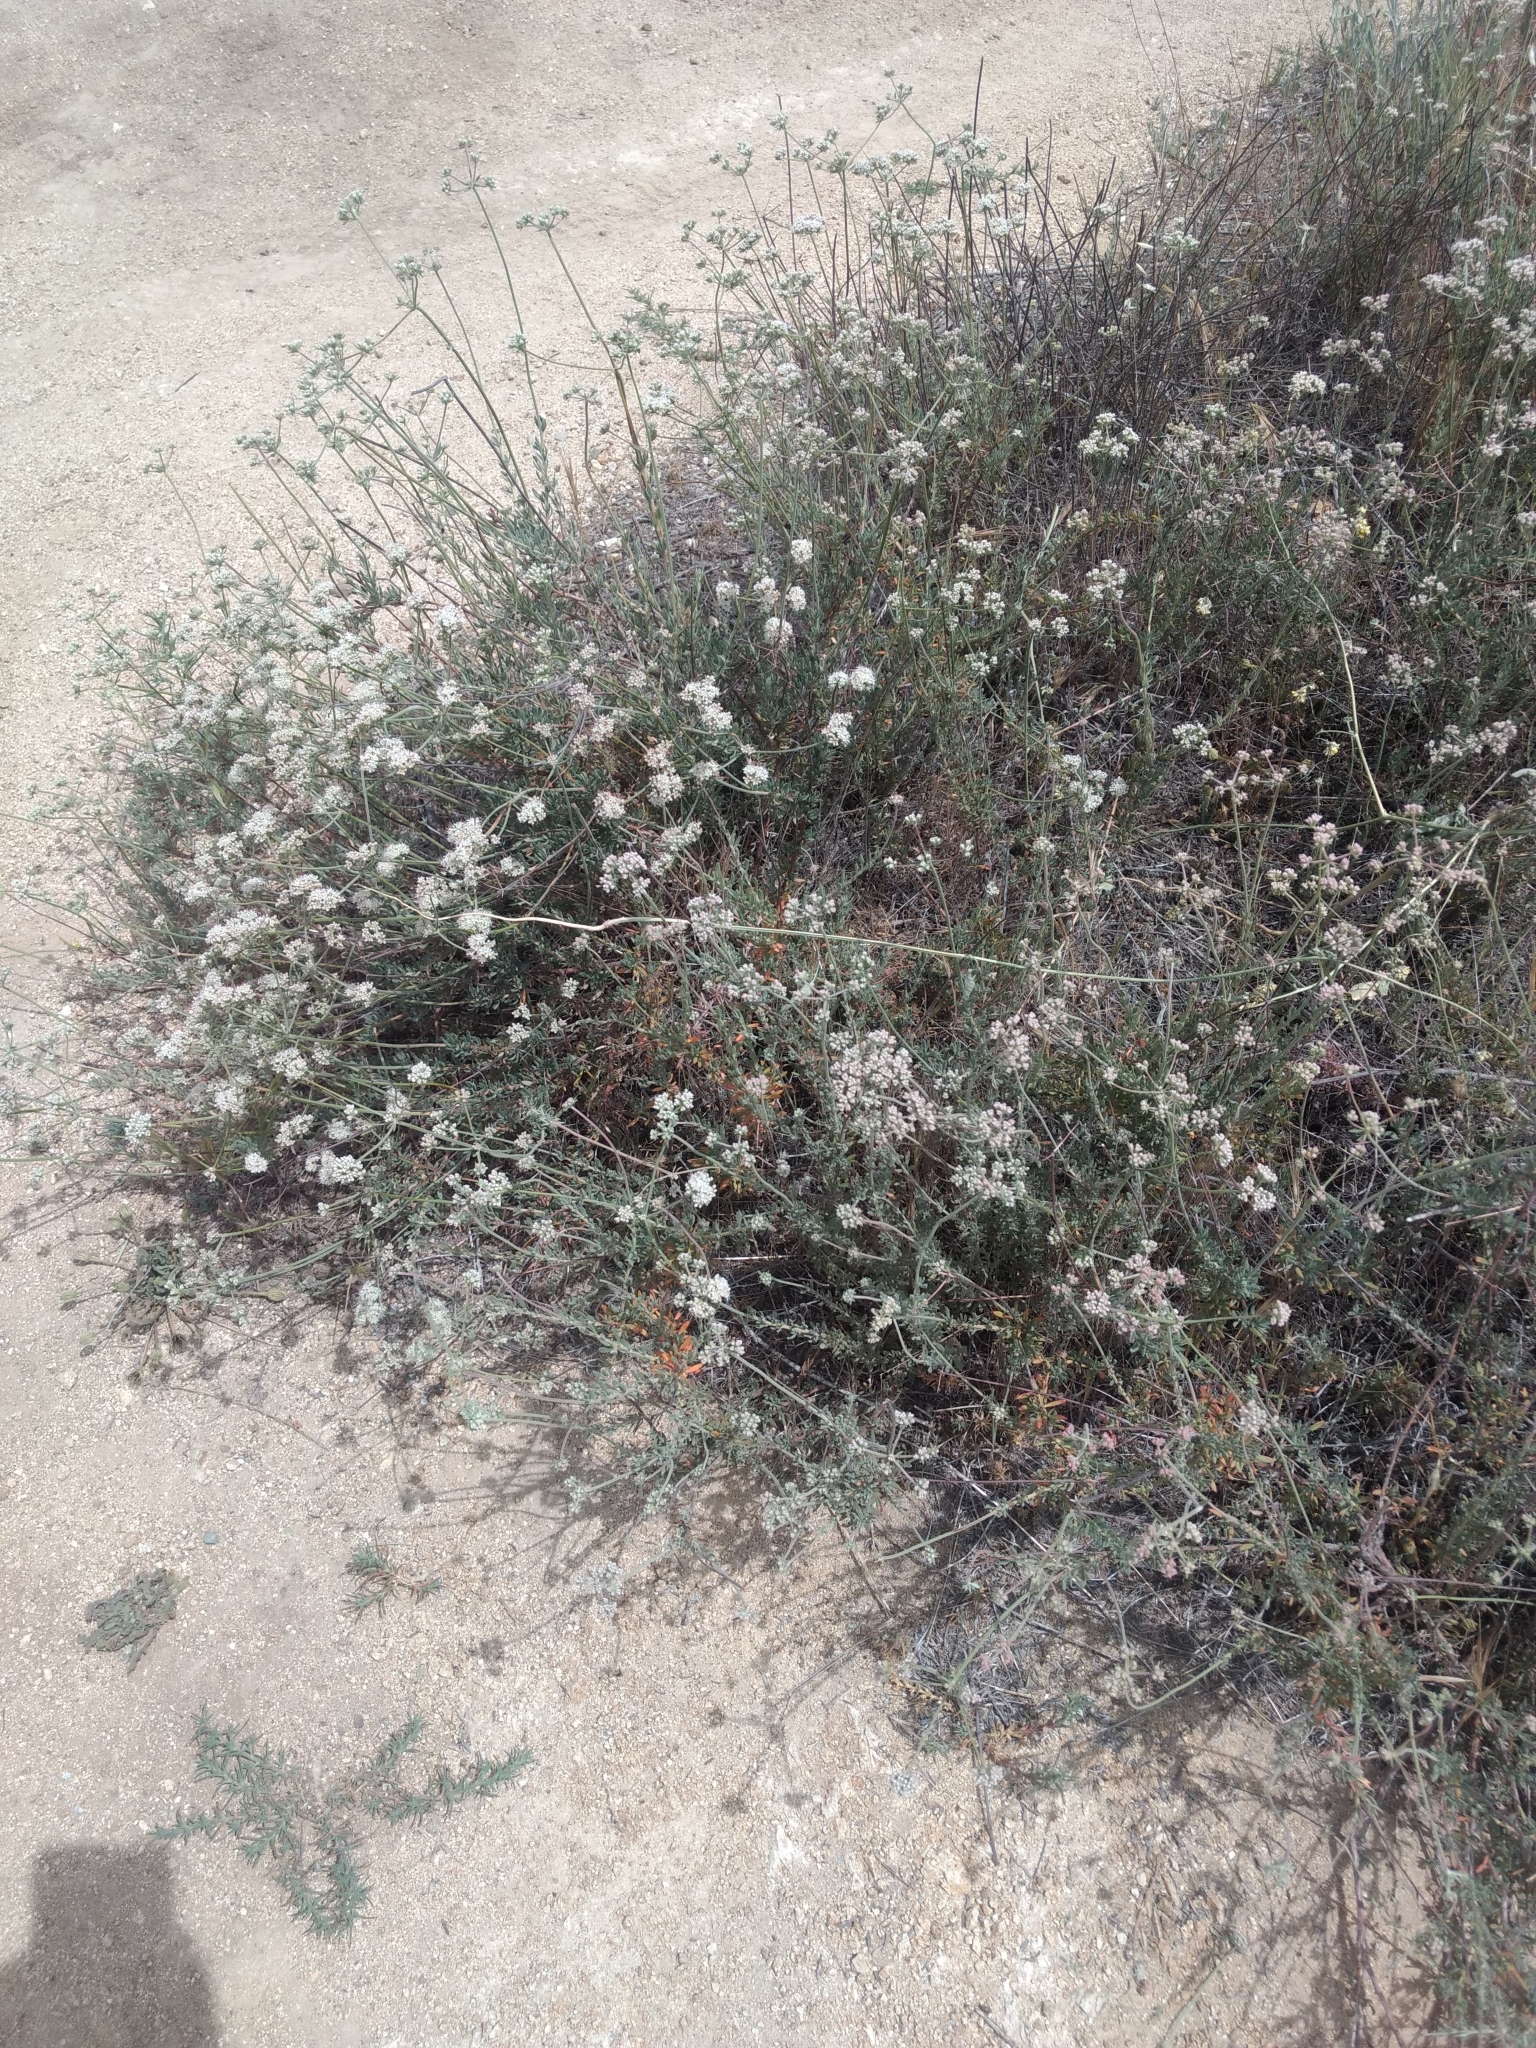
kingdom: Plantae
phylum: Tracheophyta
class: Magnoliopsida
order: Caryophyllales
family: Polygonaceae
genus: Eriogonum
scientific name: Eriogonum fasciculatum
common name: California wild buckwheat
